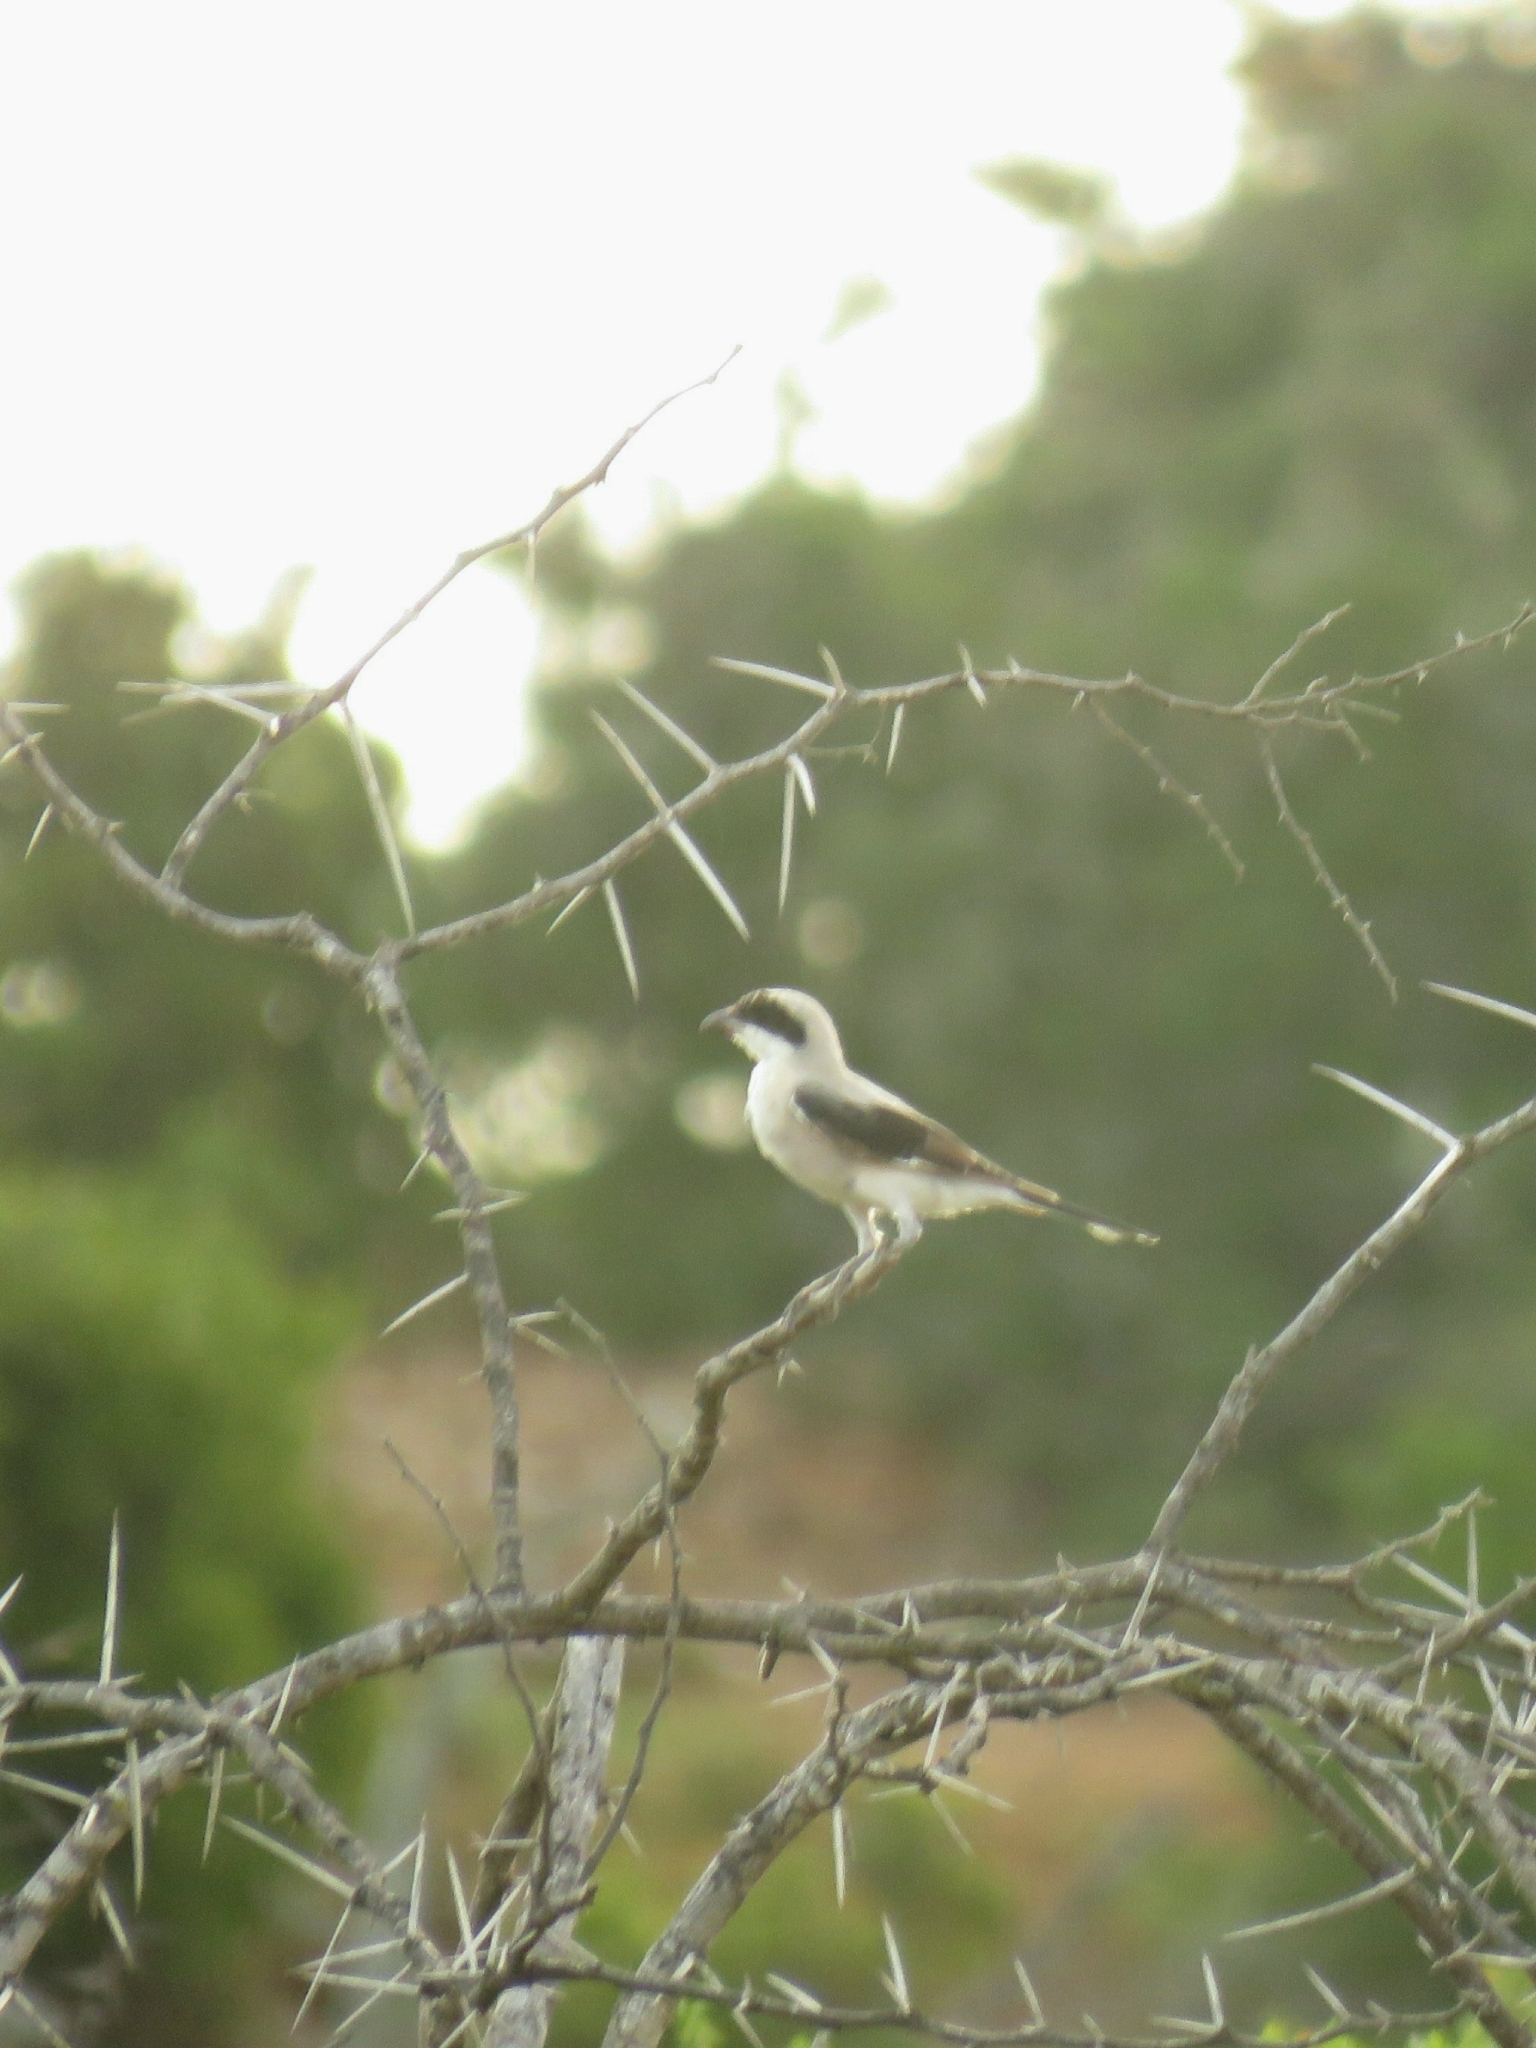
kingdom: Animalia
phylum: Chordata
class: Aves
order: Passeriformes
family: Laniidae
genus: Lanius
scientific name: Lanius minor
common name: Lesser grey shrike
